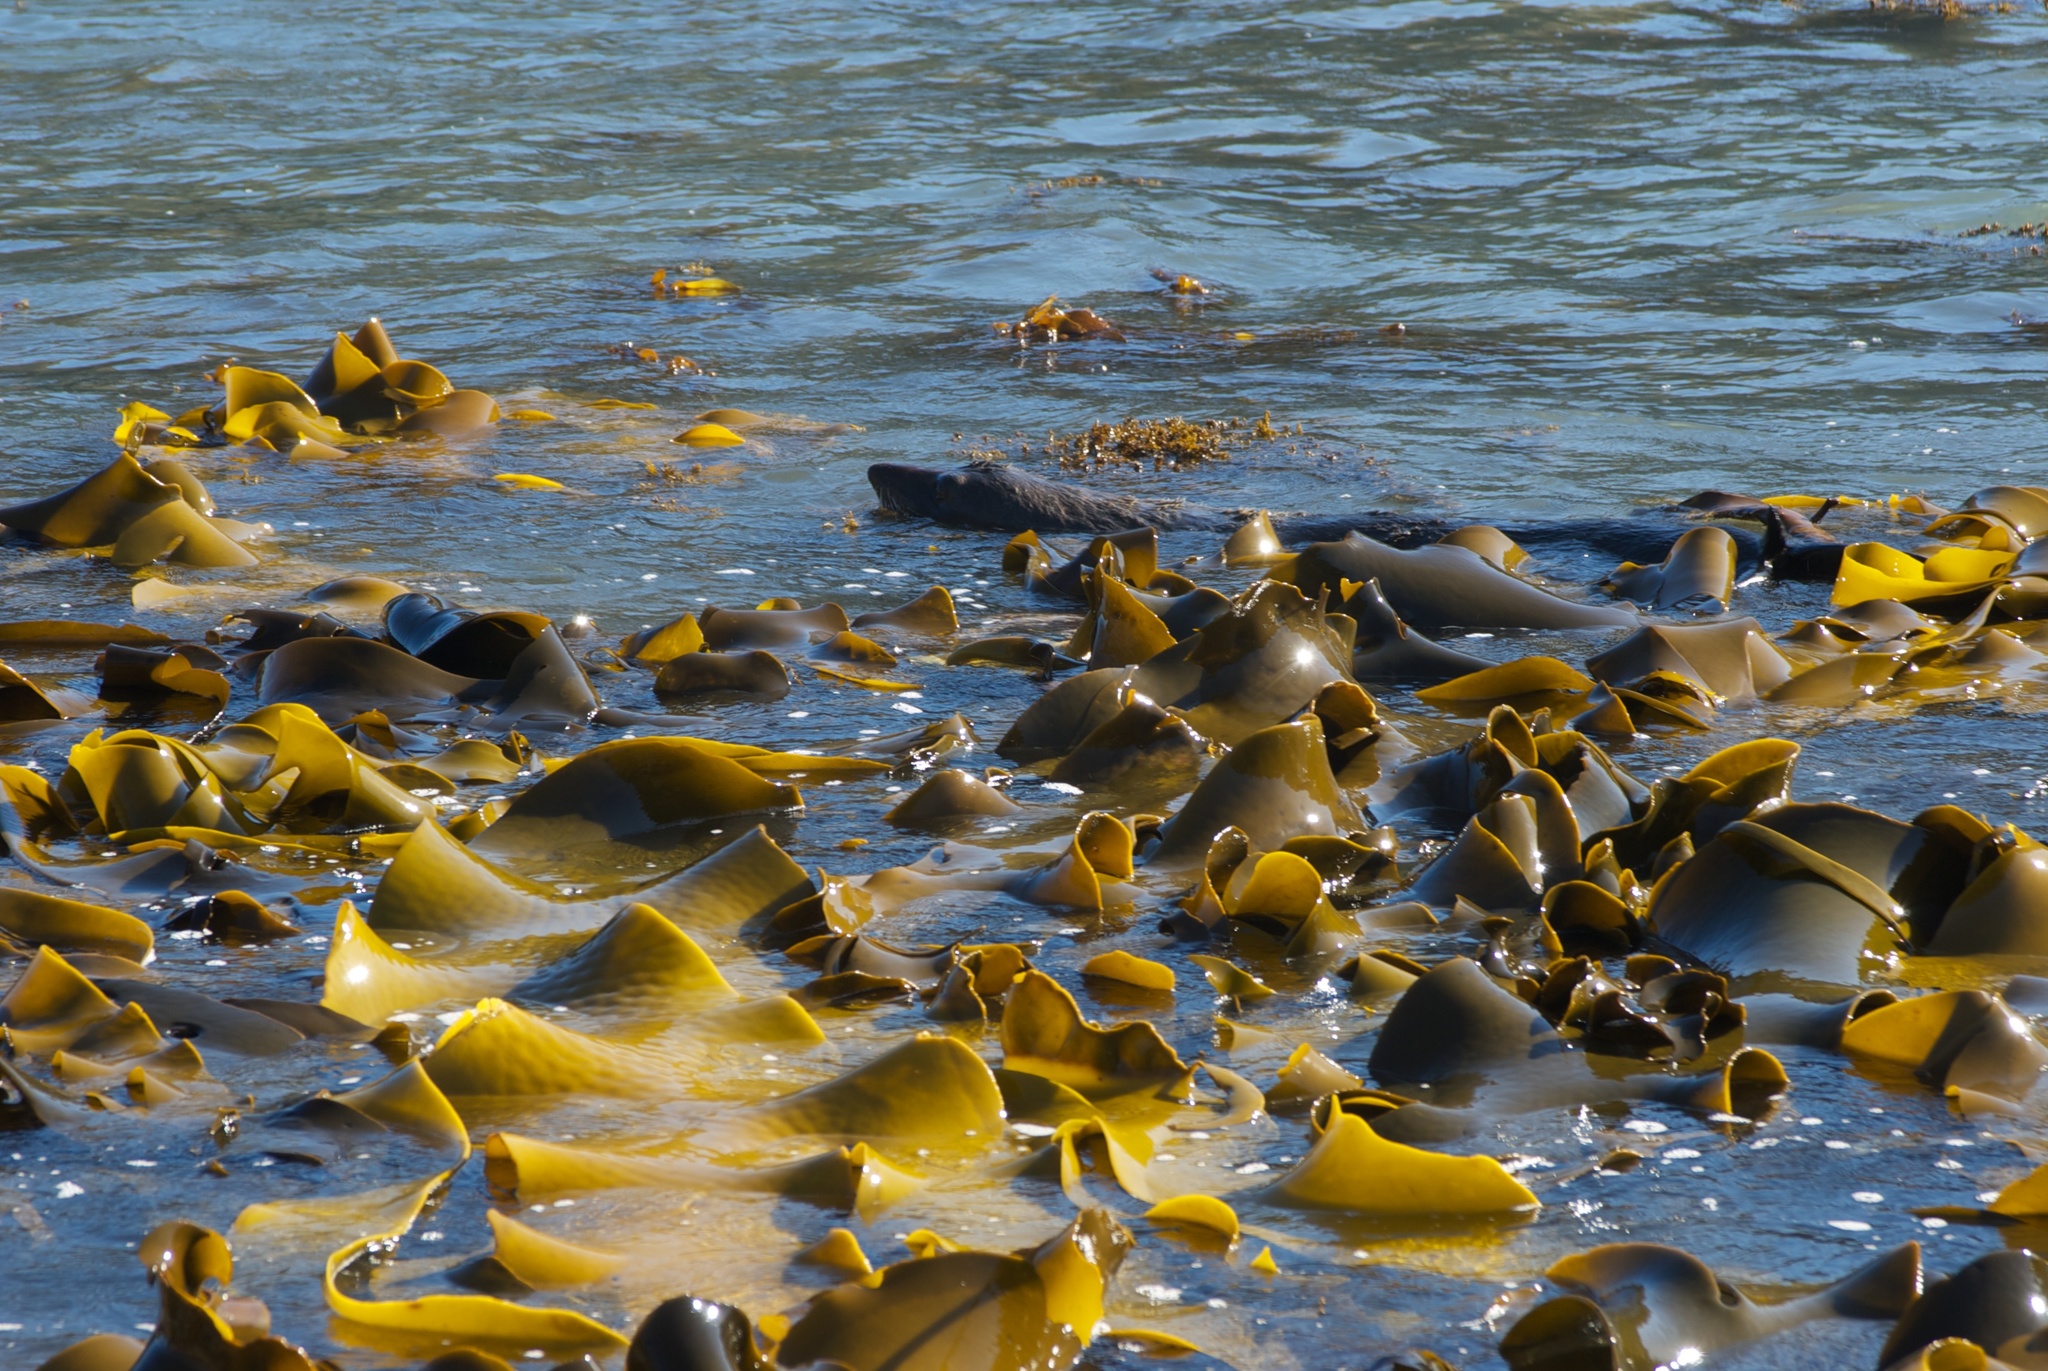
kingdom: Animalia
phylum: Chordata
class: Mammalia
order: Carnivora
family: Otariidae
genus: Arctocephalus
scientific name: Arctocephalus forsteri
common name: New zealand fur seal
